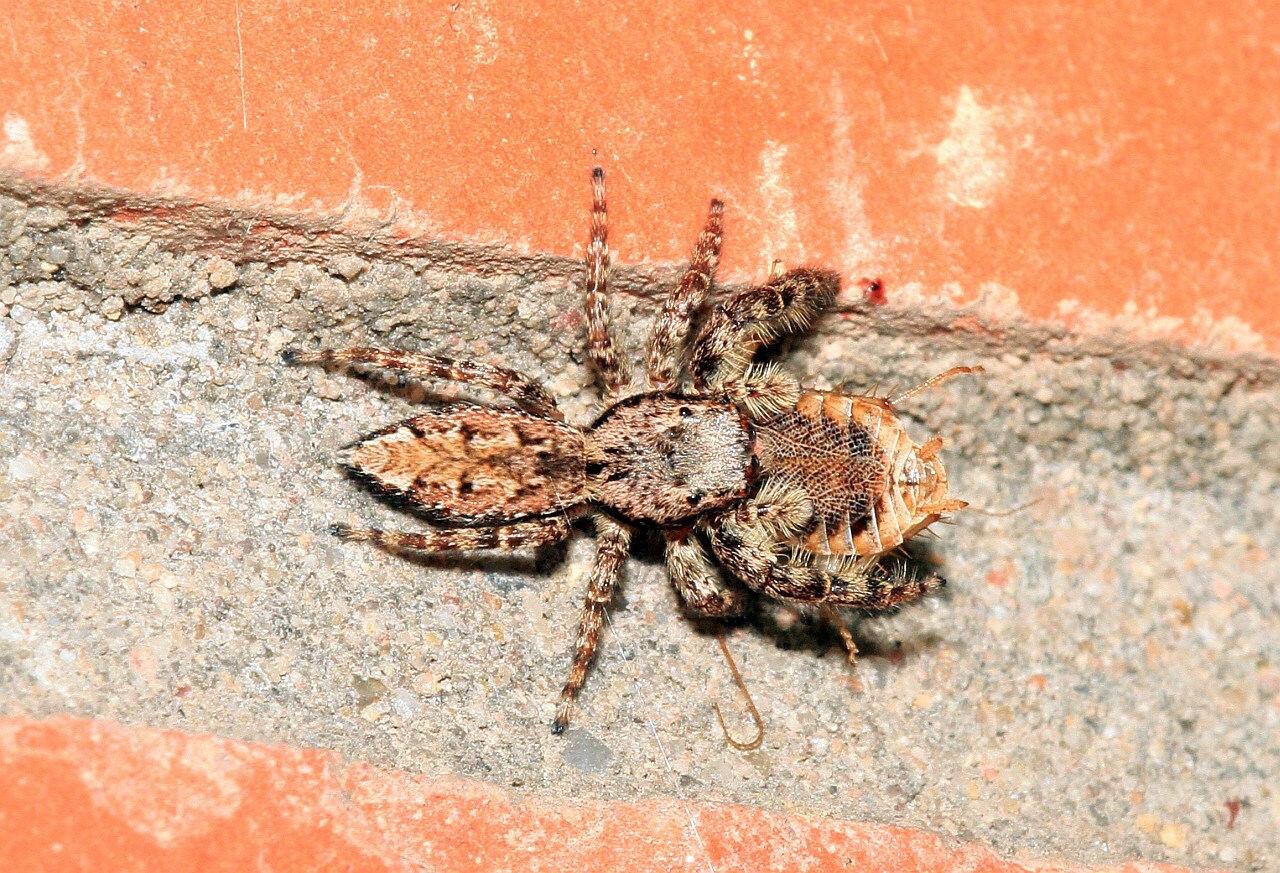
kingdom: Animalia
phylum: Arthropoda
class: Arachnida
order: Araneae
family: Salticidae
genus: Marpissa
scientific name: Marpissa muscosa
